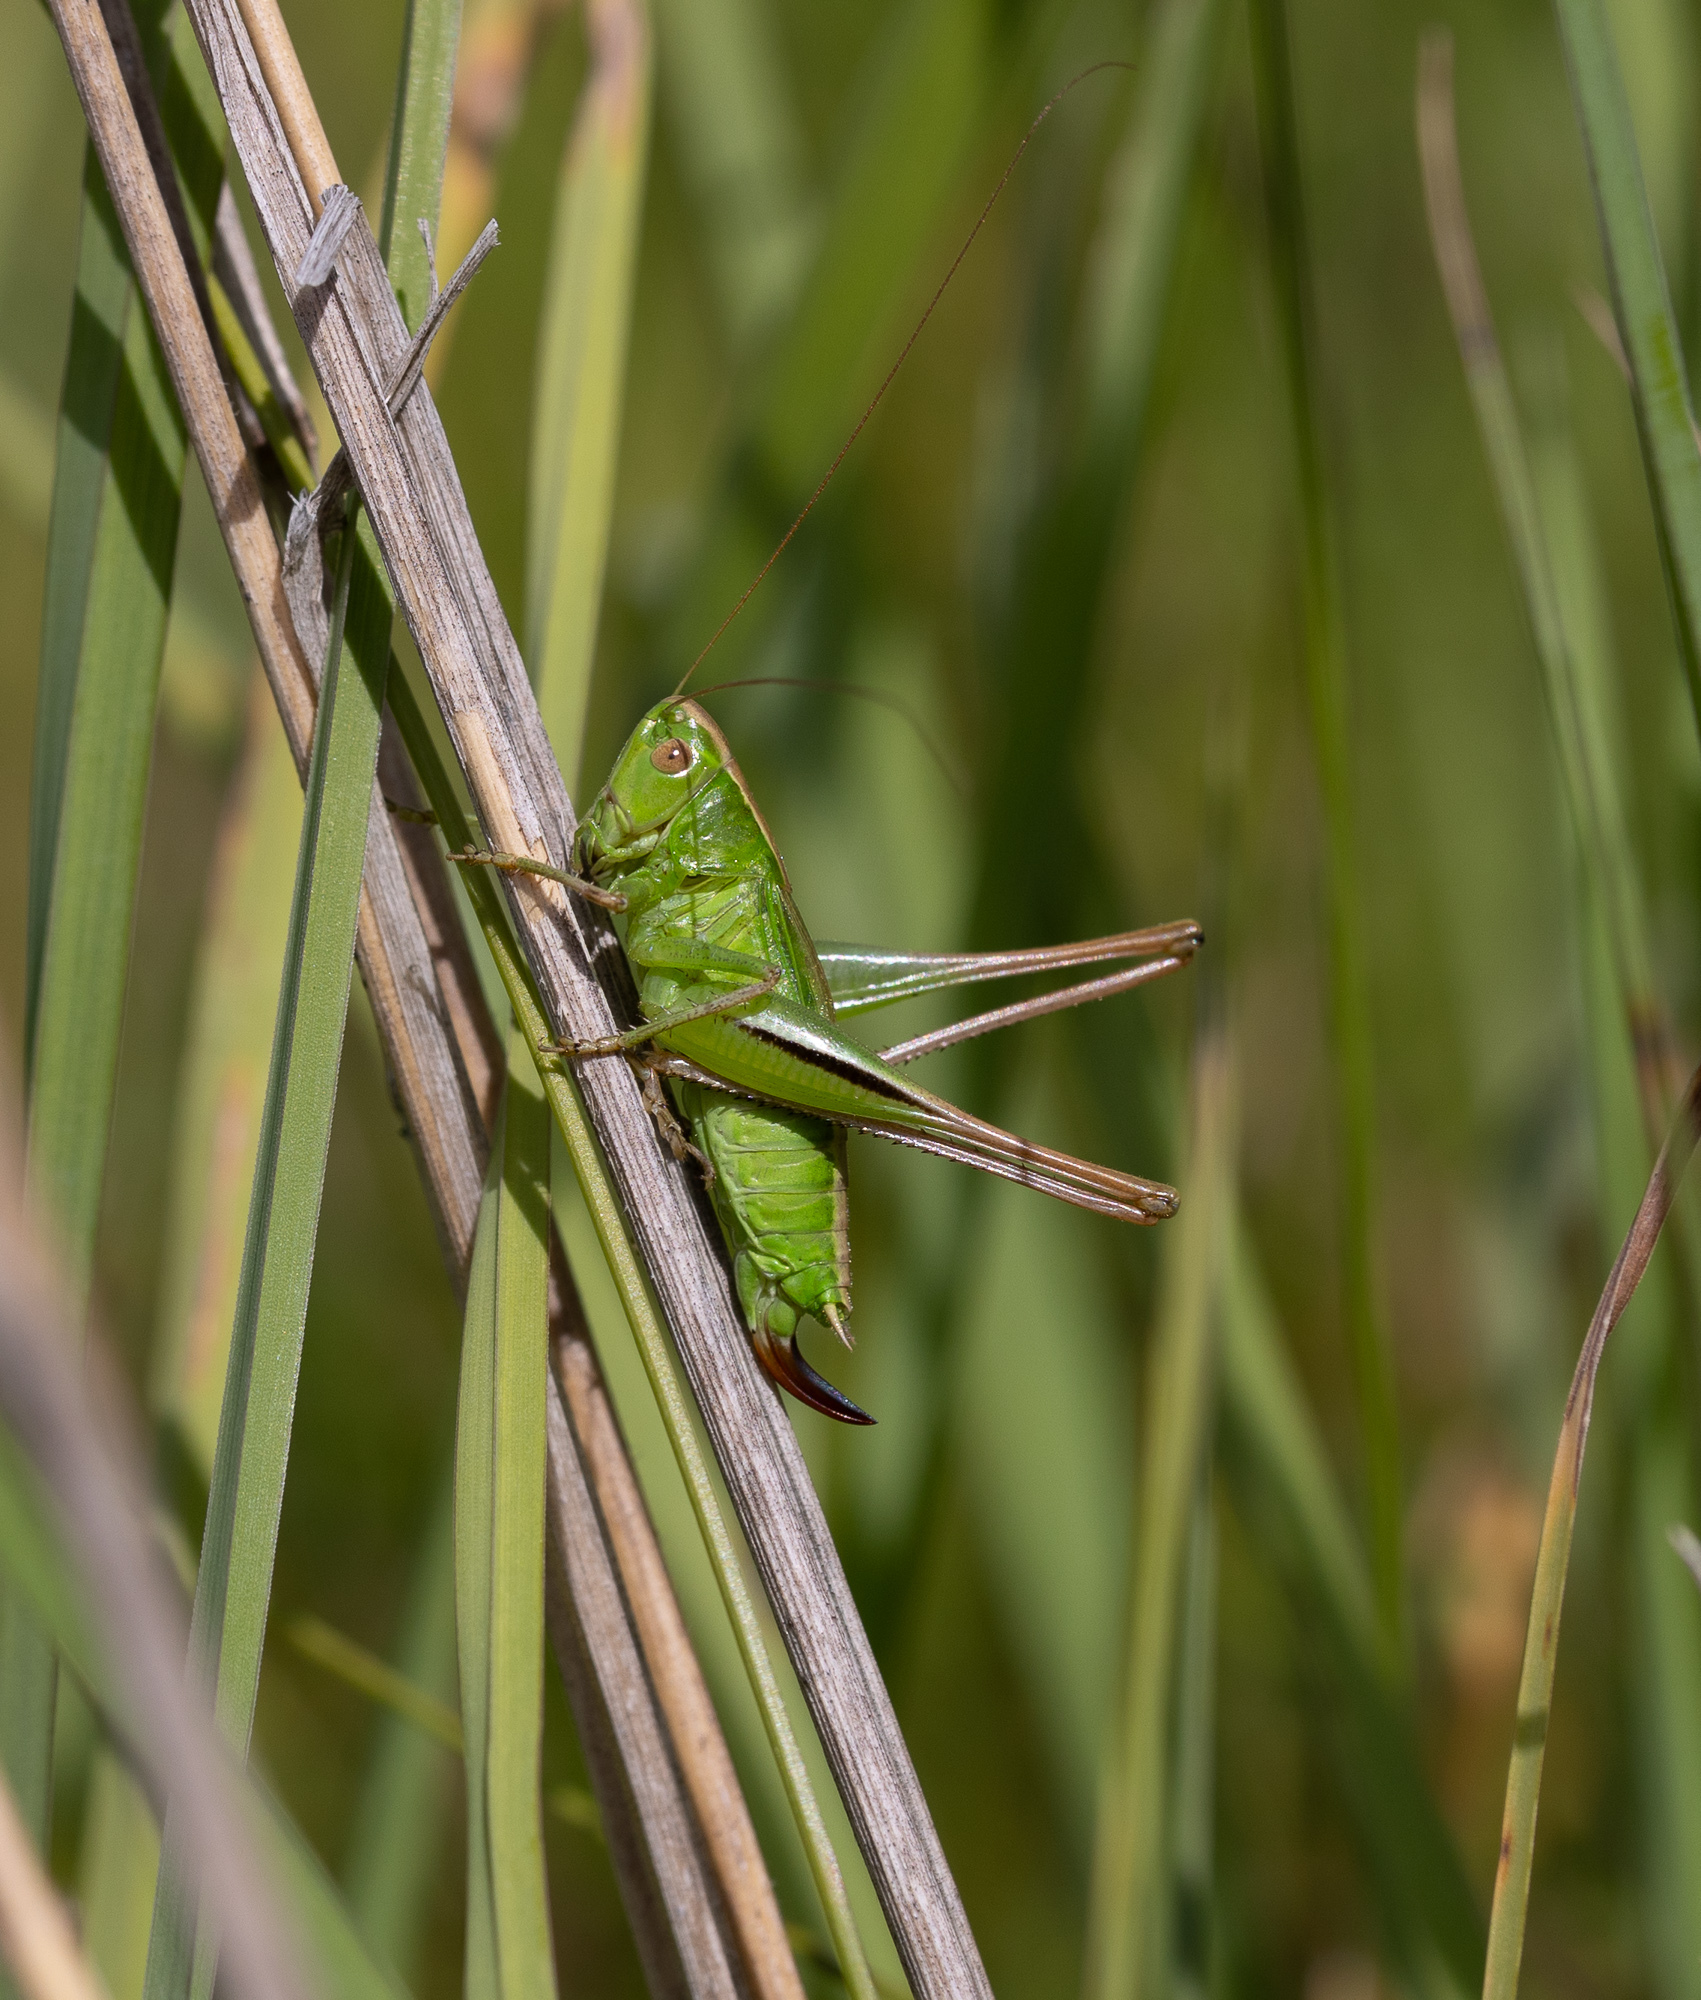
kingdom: Animalia
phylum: Arthropoda
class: Insecta
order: Orthoptera
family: Tettigoniidae
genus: Bicolorana
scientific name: Bicolorana bicolor
